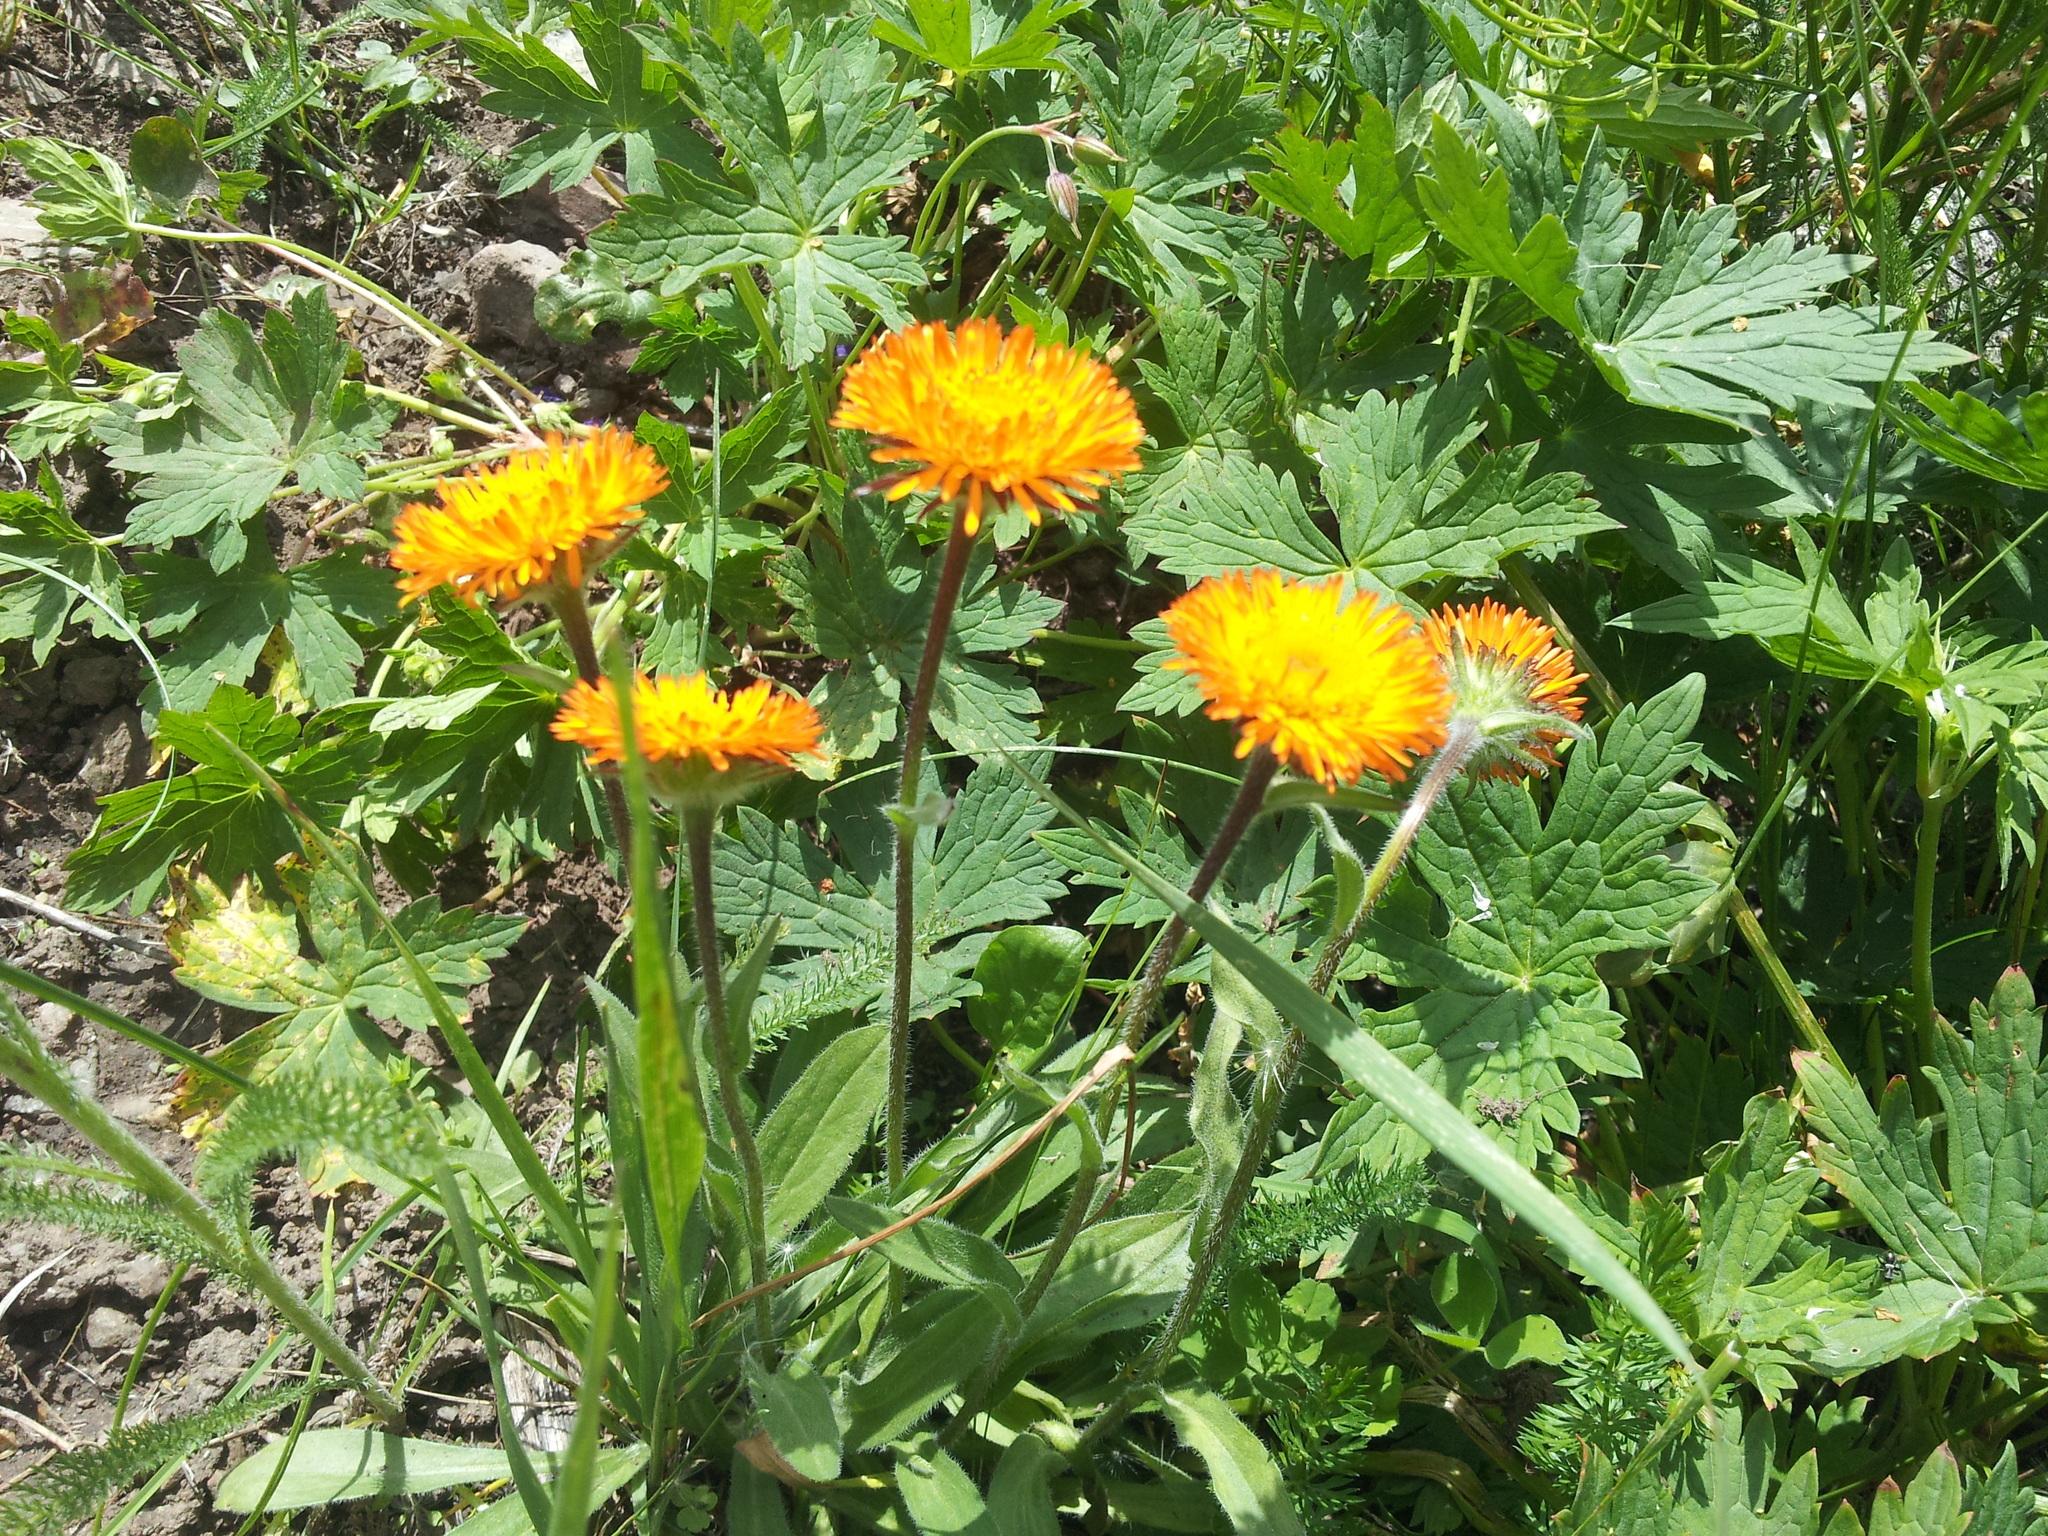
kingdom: Plantae
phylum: Tracheophyta
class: Magnoliopsida
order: Asterales
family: Asteraceae
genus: Erigeron
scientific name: Erigeron aurantiacus
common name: Orange daisy
